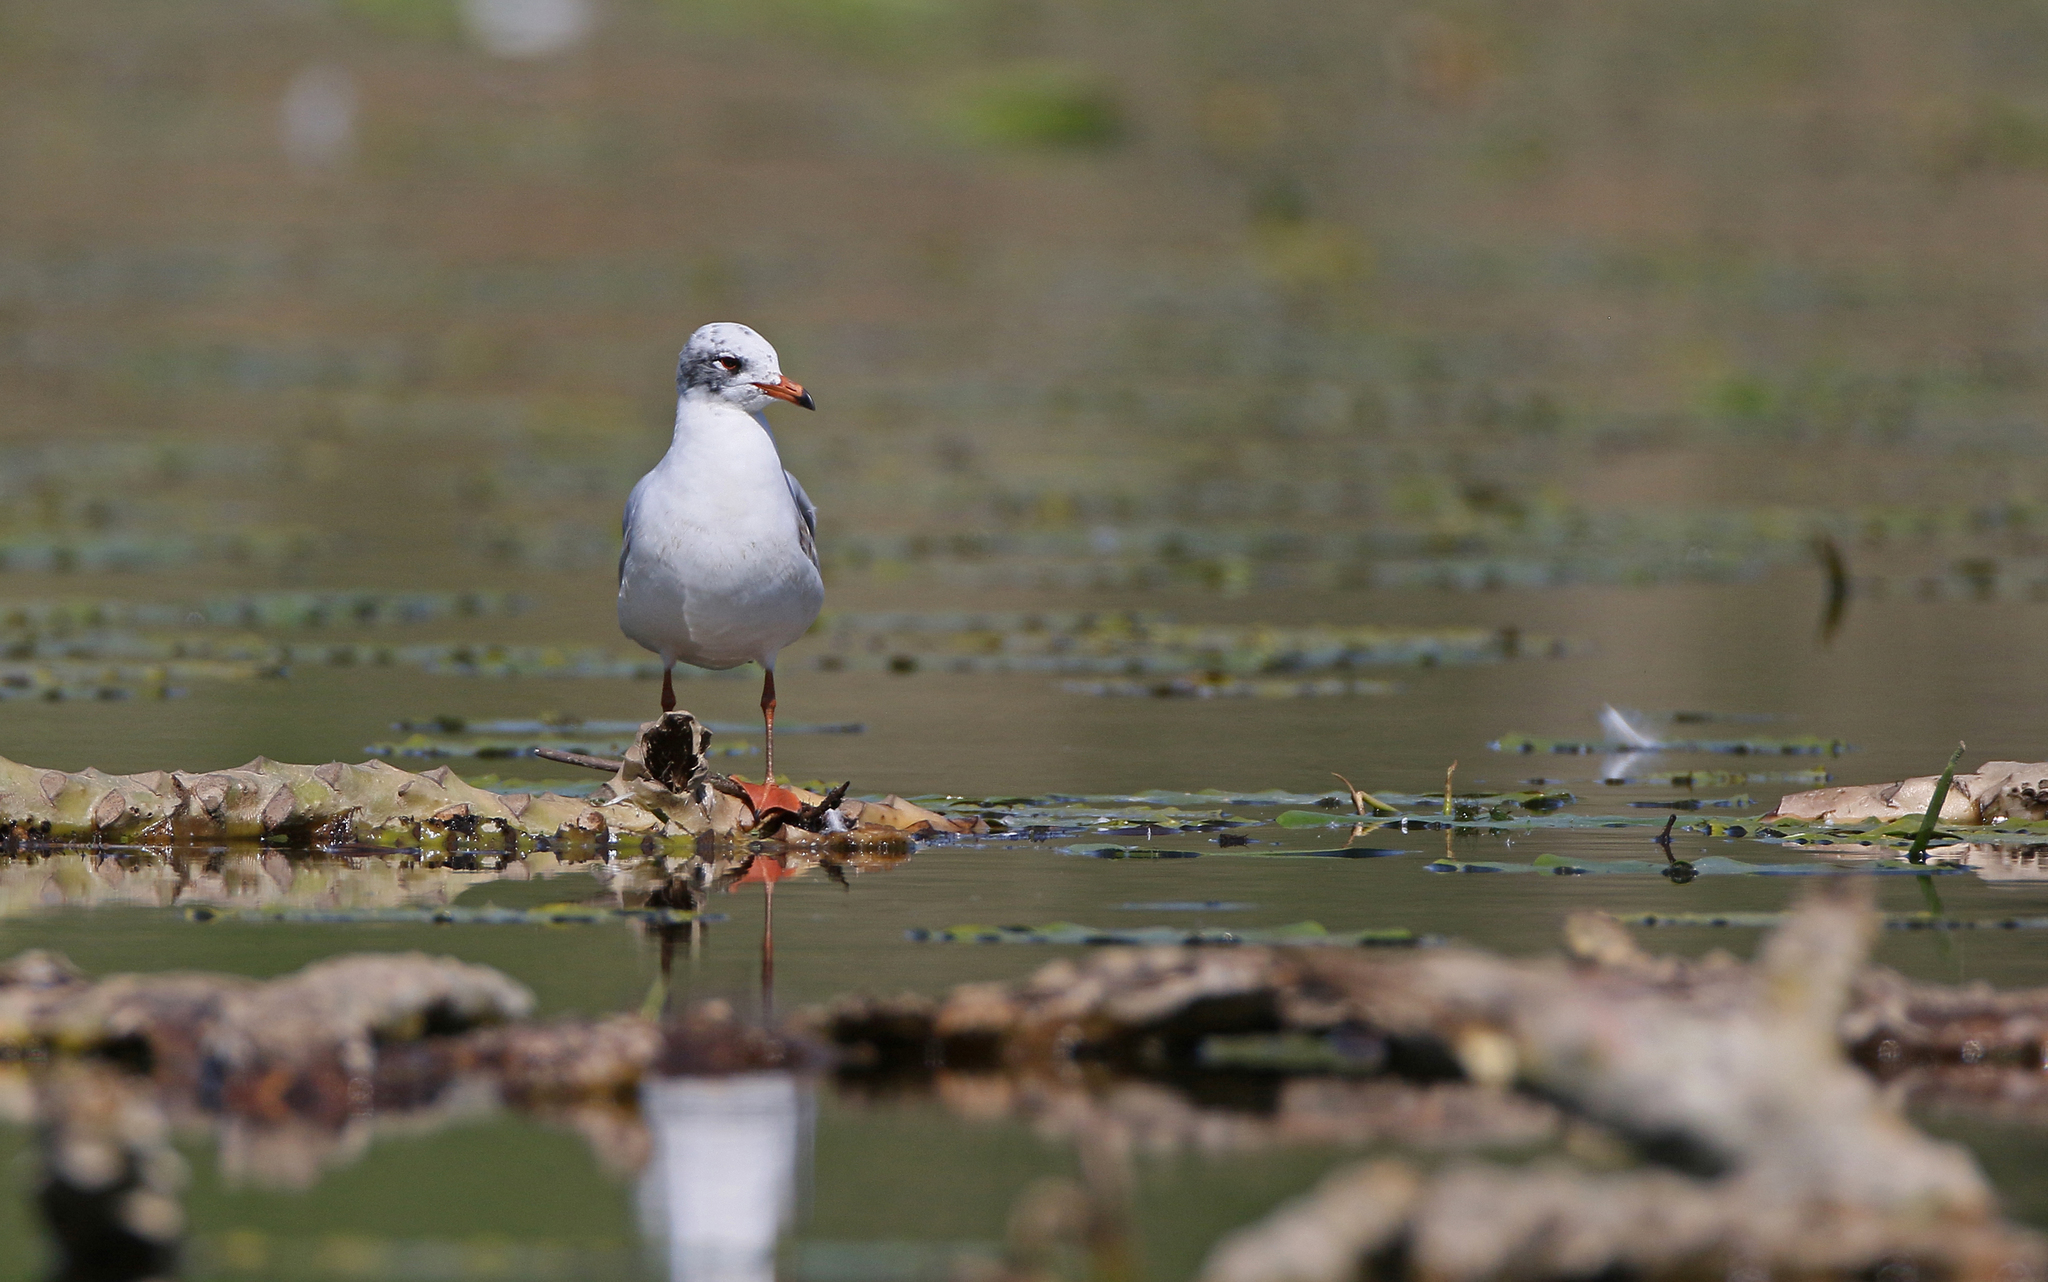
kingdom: Animalia
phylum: Chordata
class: Aves
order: Charadriiformes
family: Laridae
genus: Ichthyaetus
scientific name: Ichthyaetus melanocephalus
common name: Mediterranean gull
